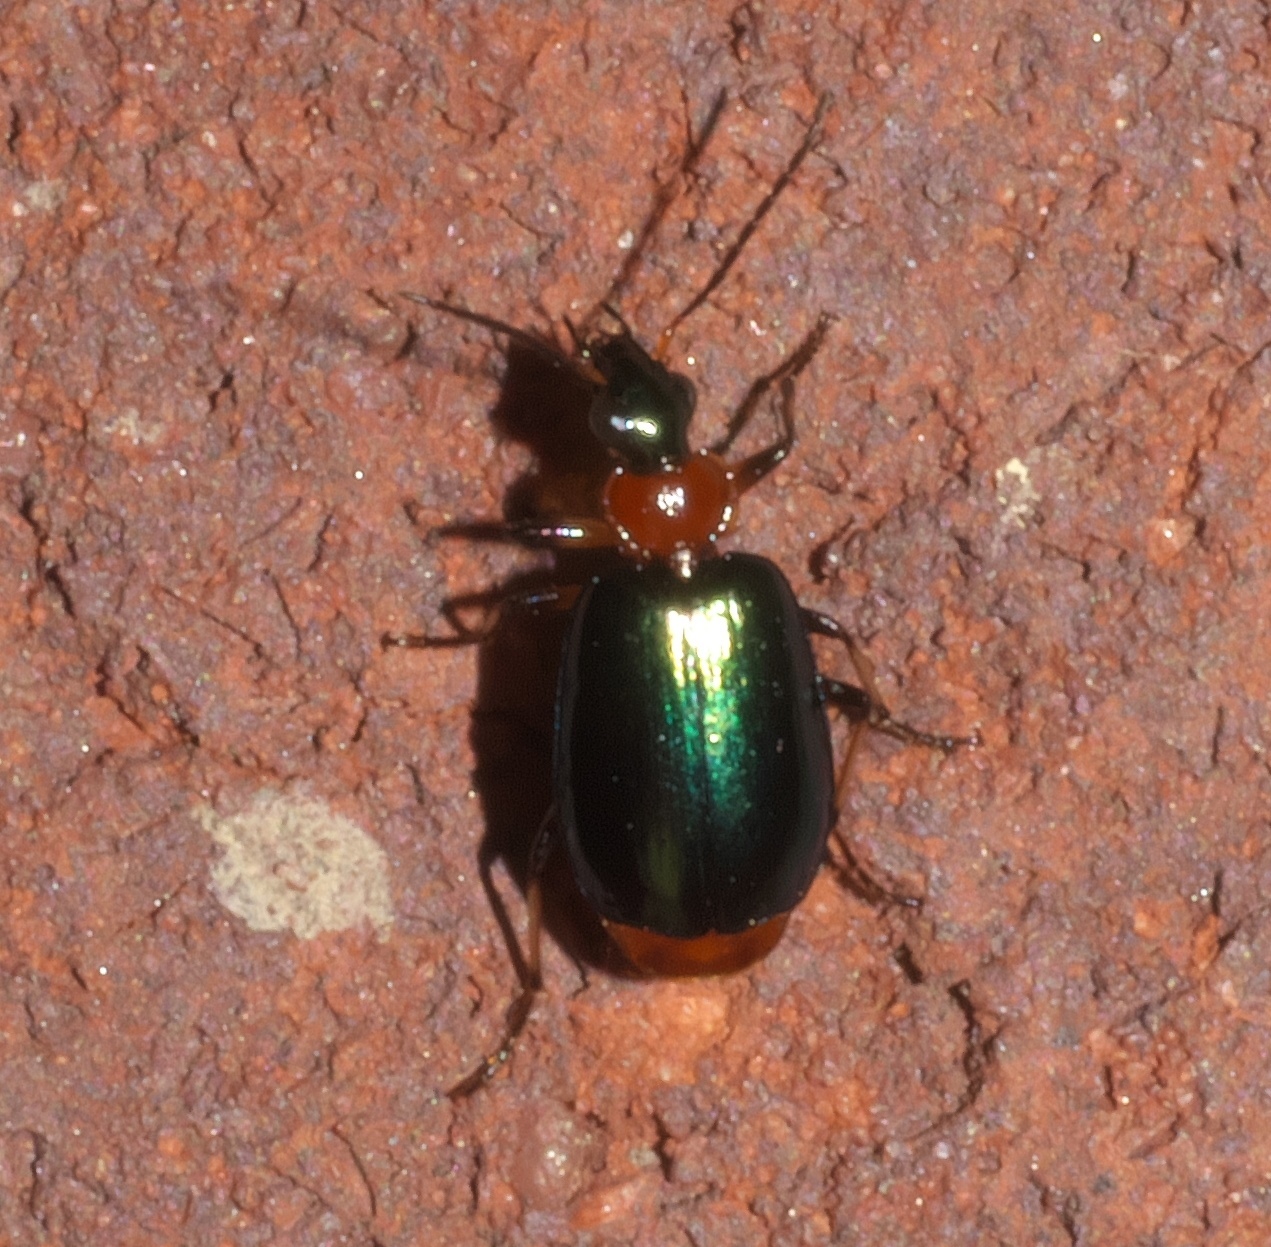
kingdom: Animalia
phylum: Arthropoda
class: Insecta
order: Coleoptera
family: Carabidae
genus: Lebia
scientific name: Lebia viridipennis
